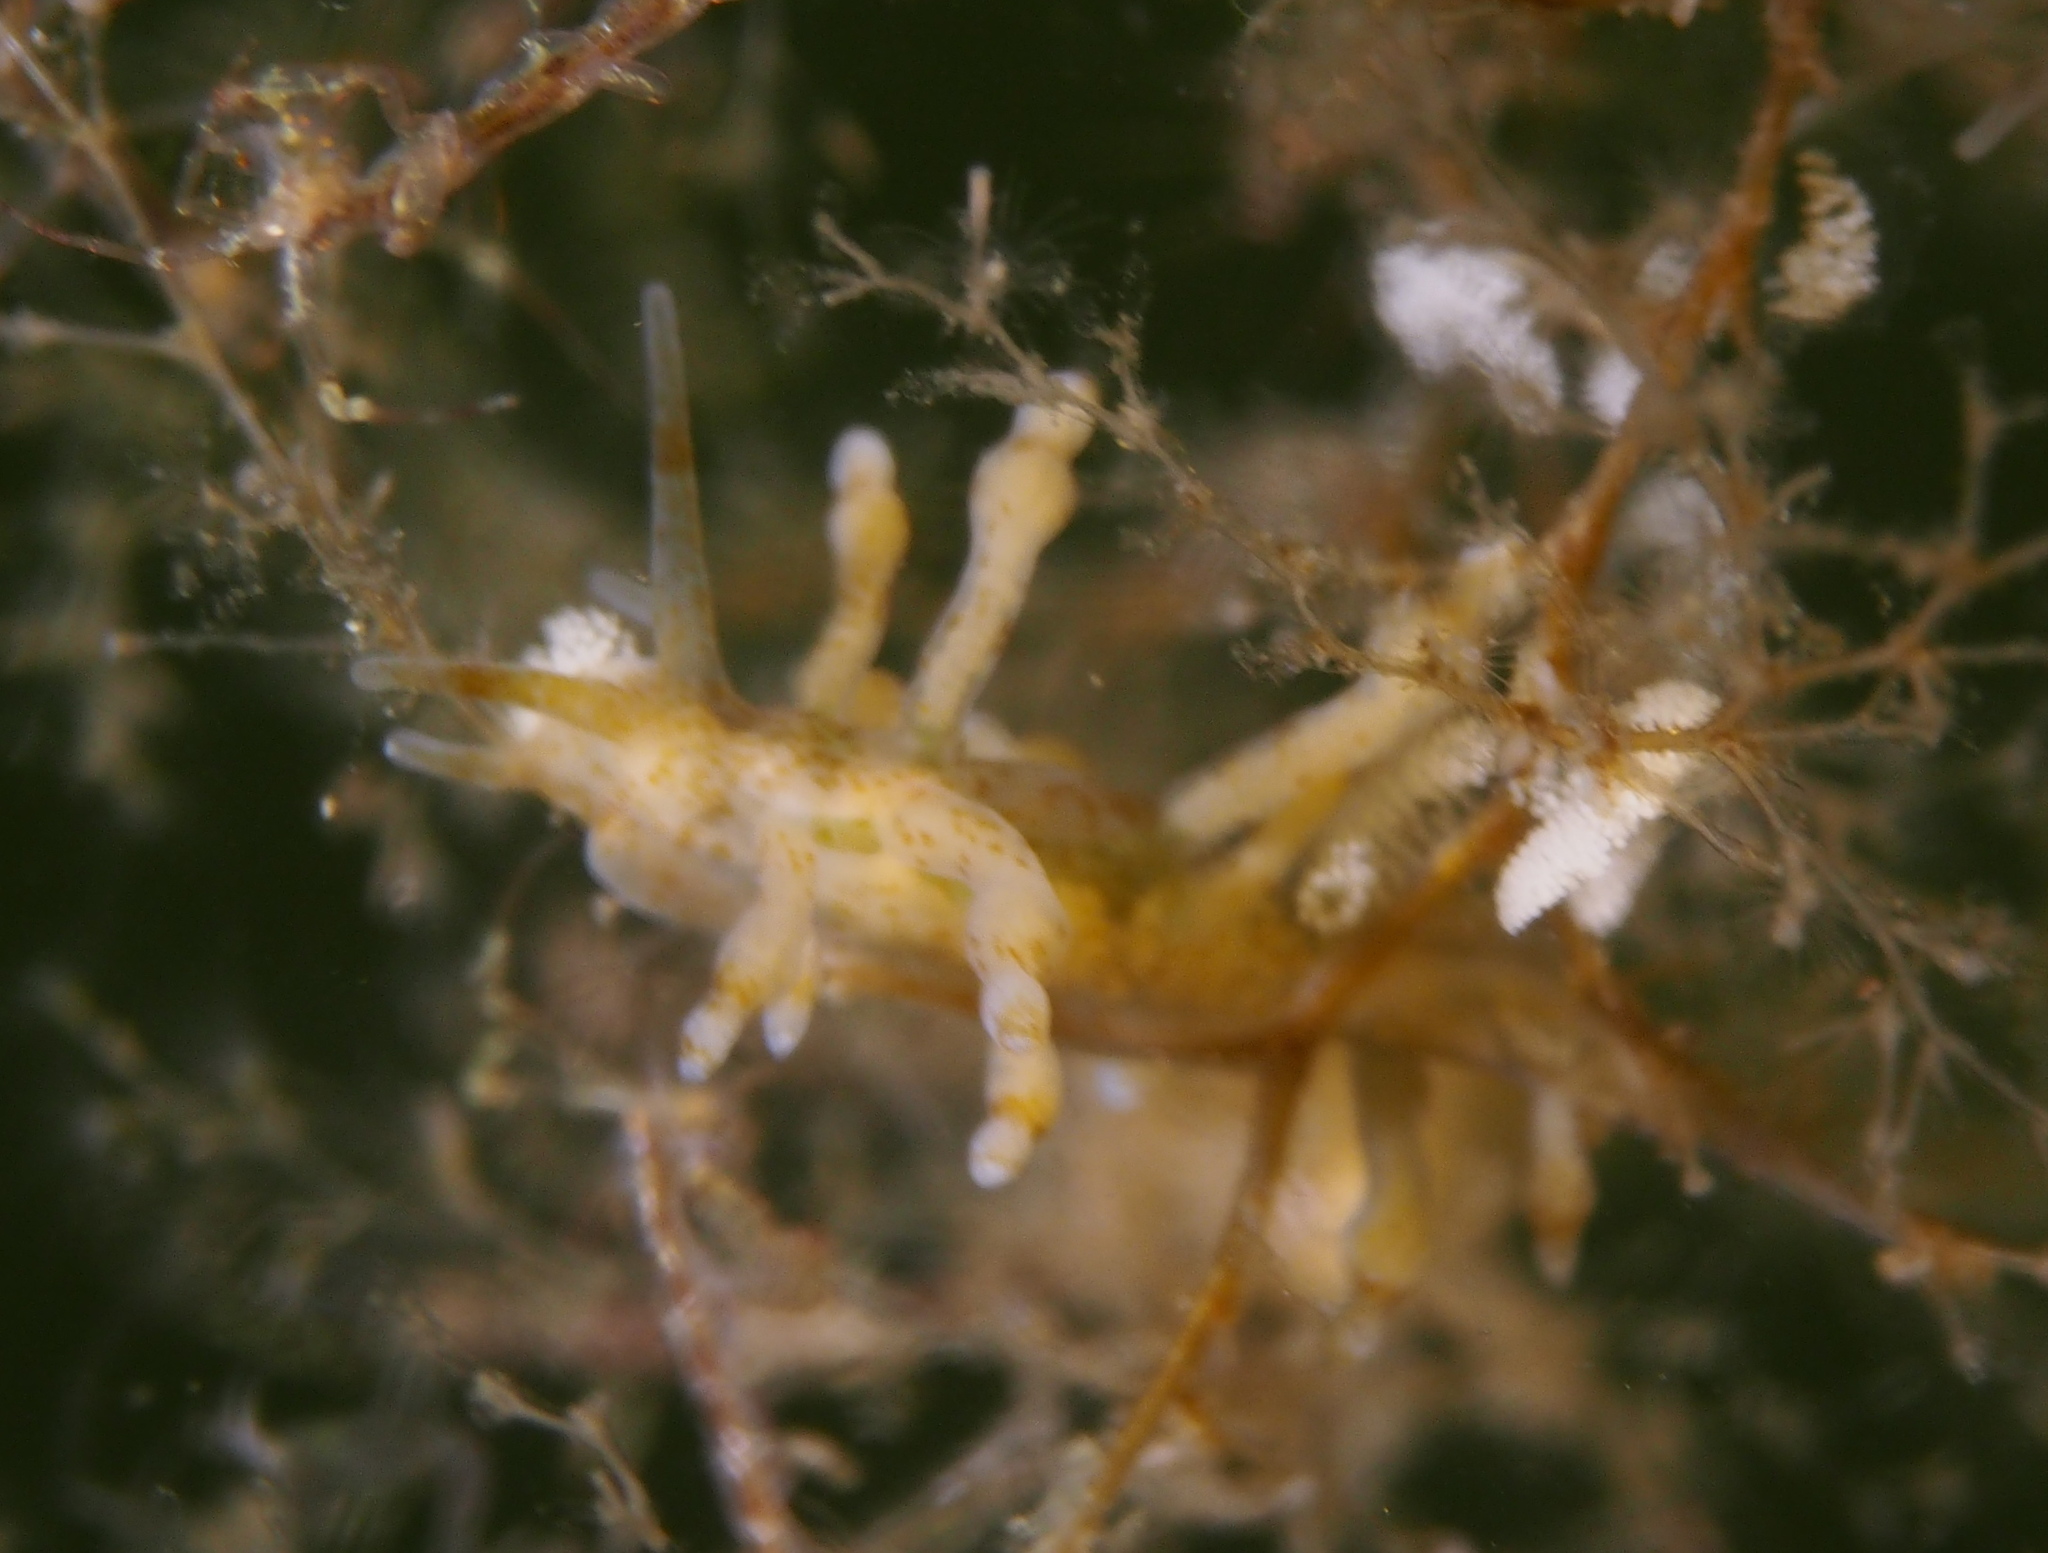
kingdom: Animalia
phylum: Mollusca
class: Gastropoda
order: Nudibranchia
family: Eubranchidae
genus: Eubranchus
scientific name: Eubranchus rupium
